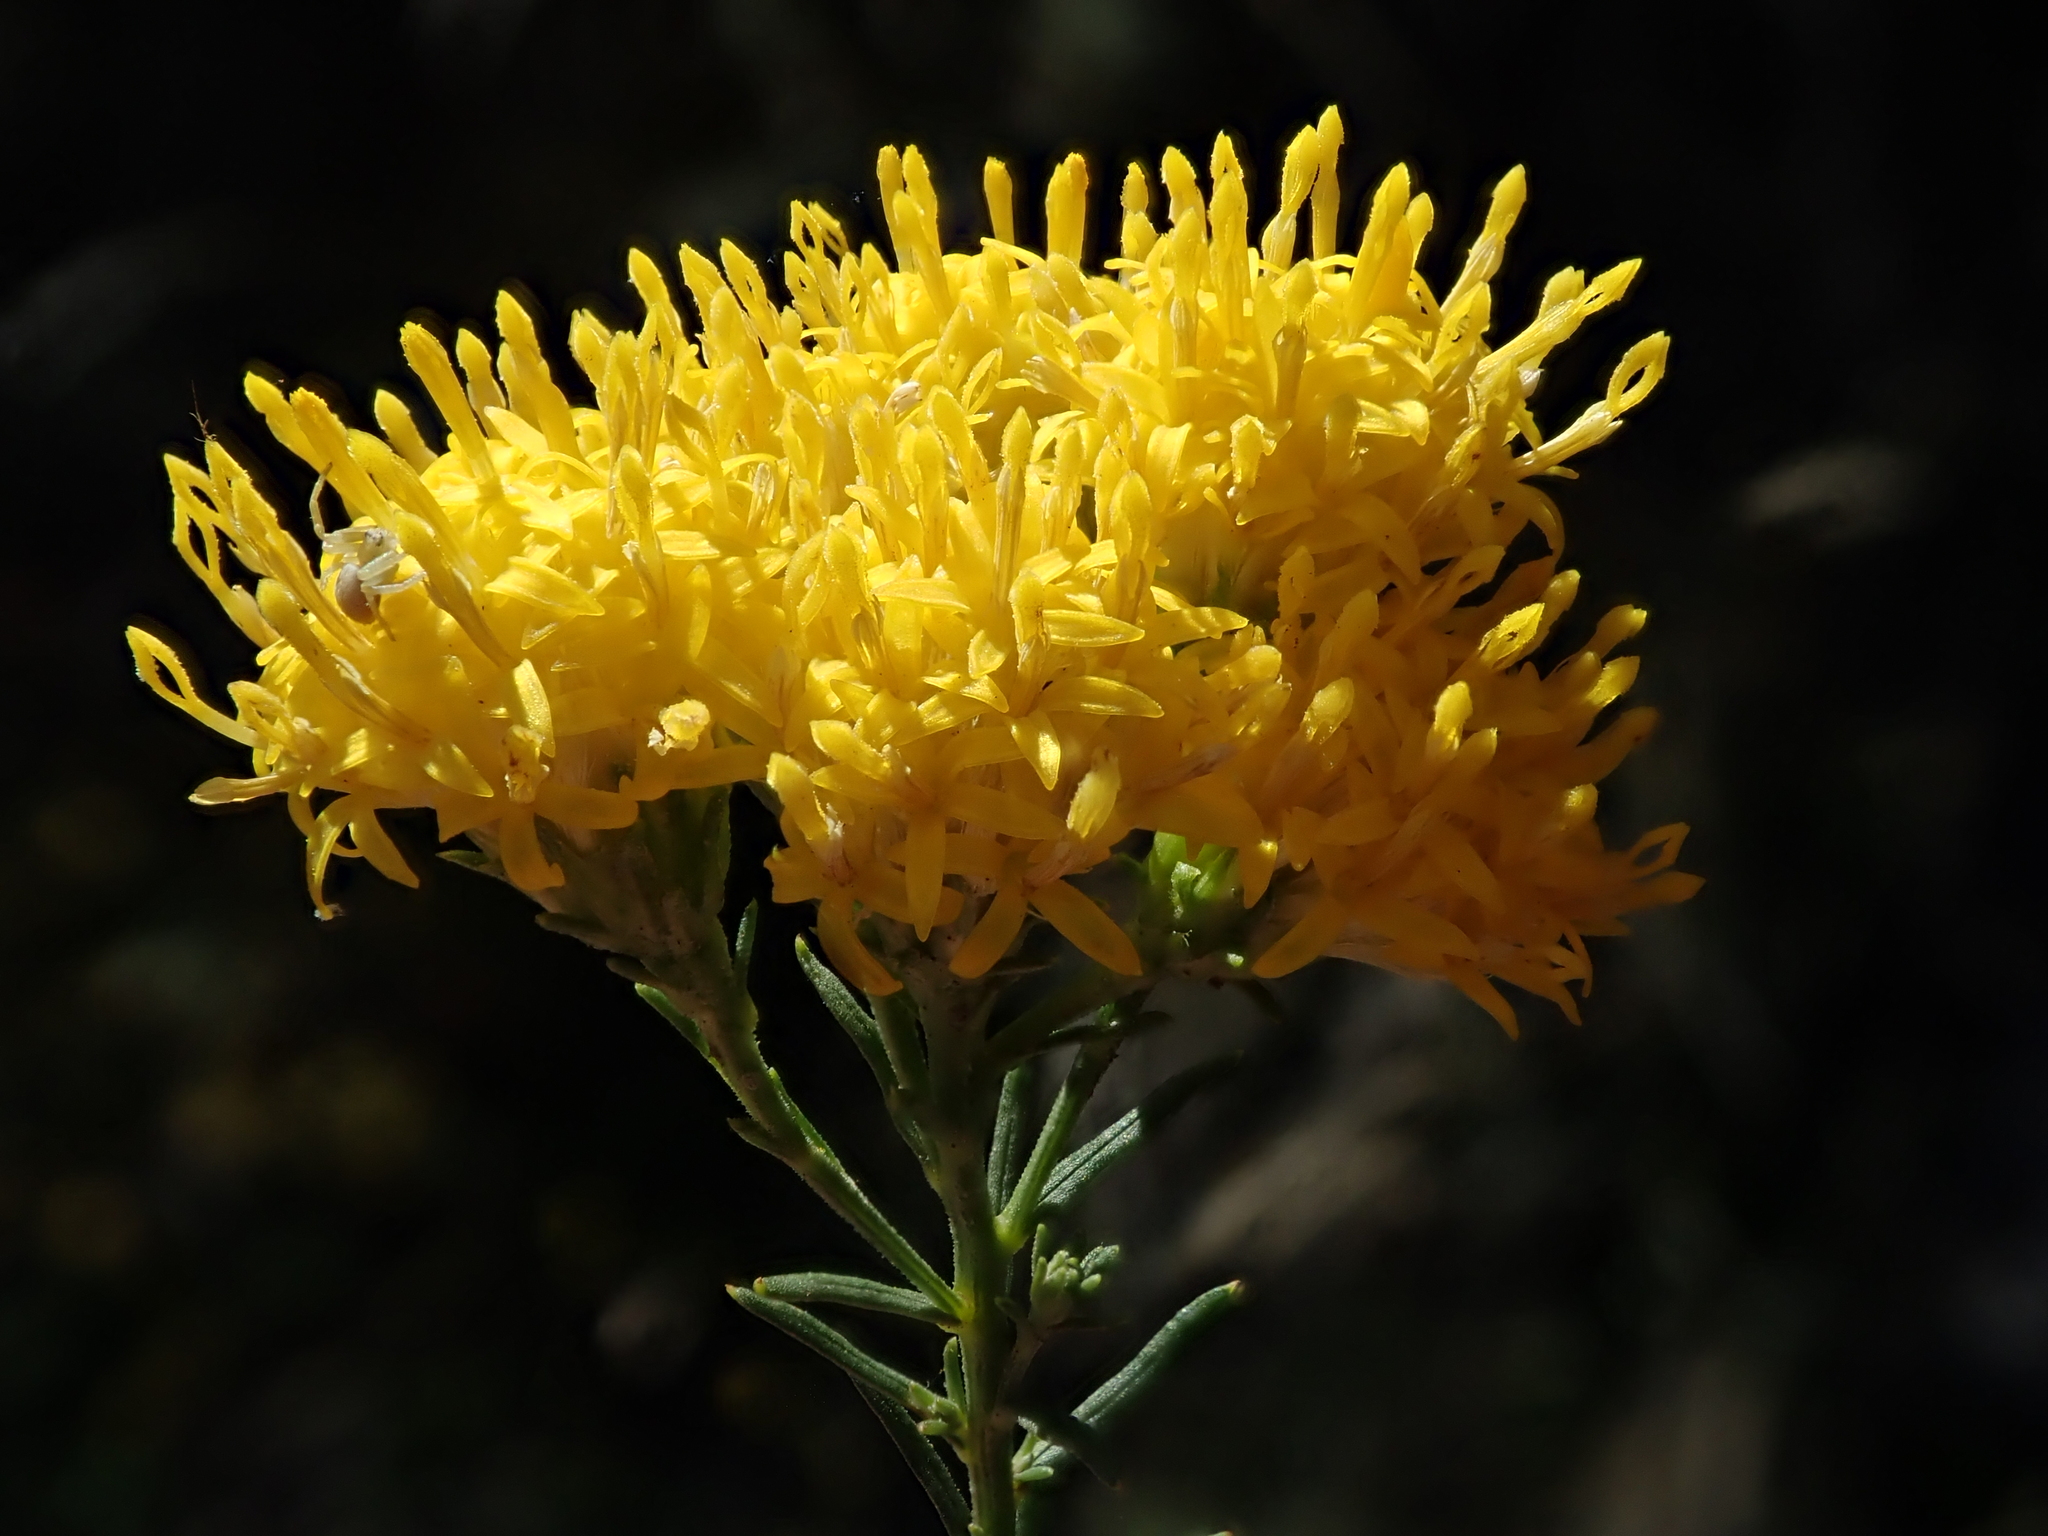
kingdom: Plantae
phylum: Tracheophyta
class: Magnoliopsida
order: Asterales
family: Asteraceae
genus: Galatella
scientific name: Galatella linosyris
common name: Goldilocks aster
